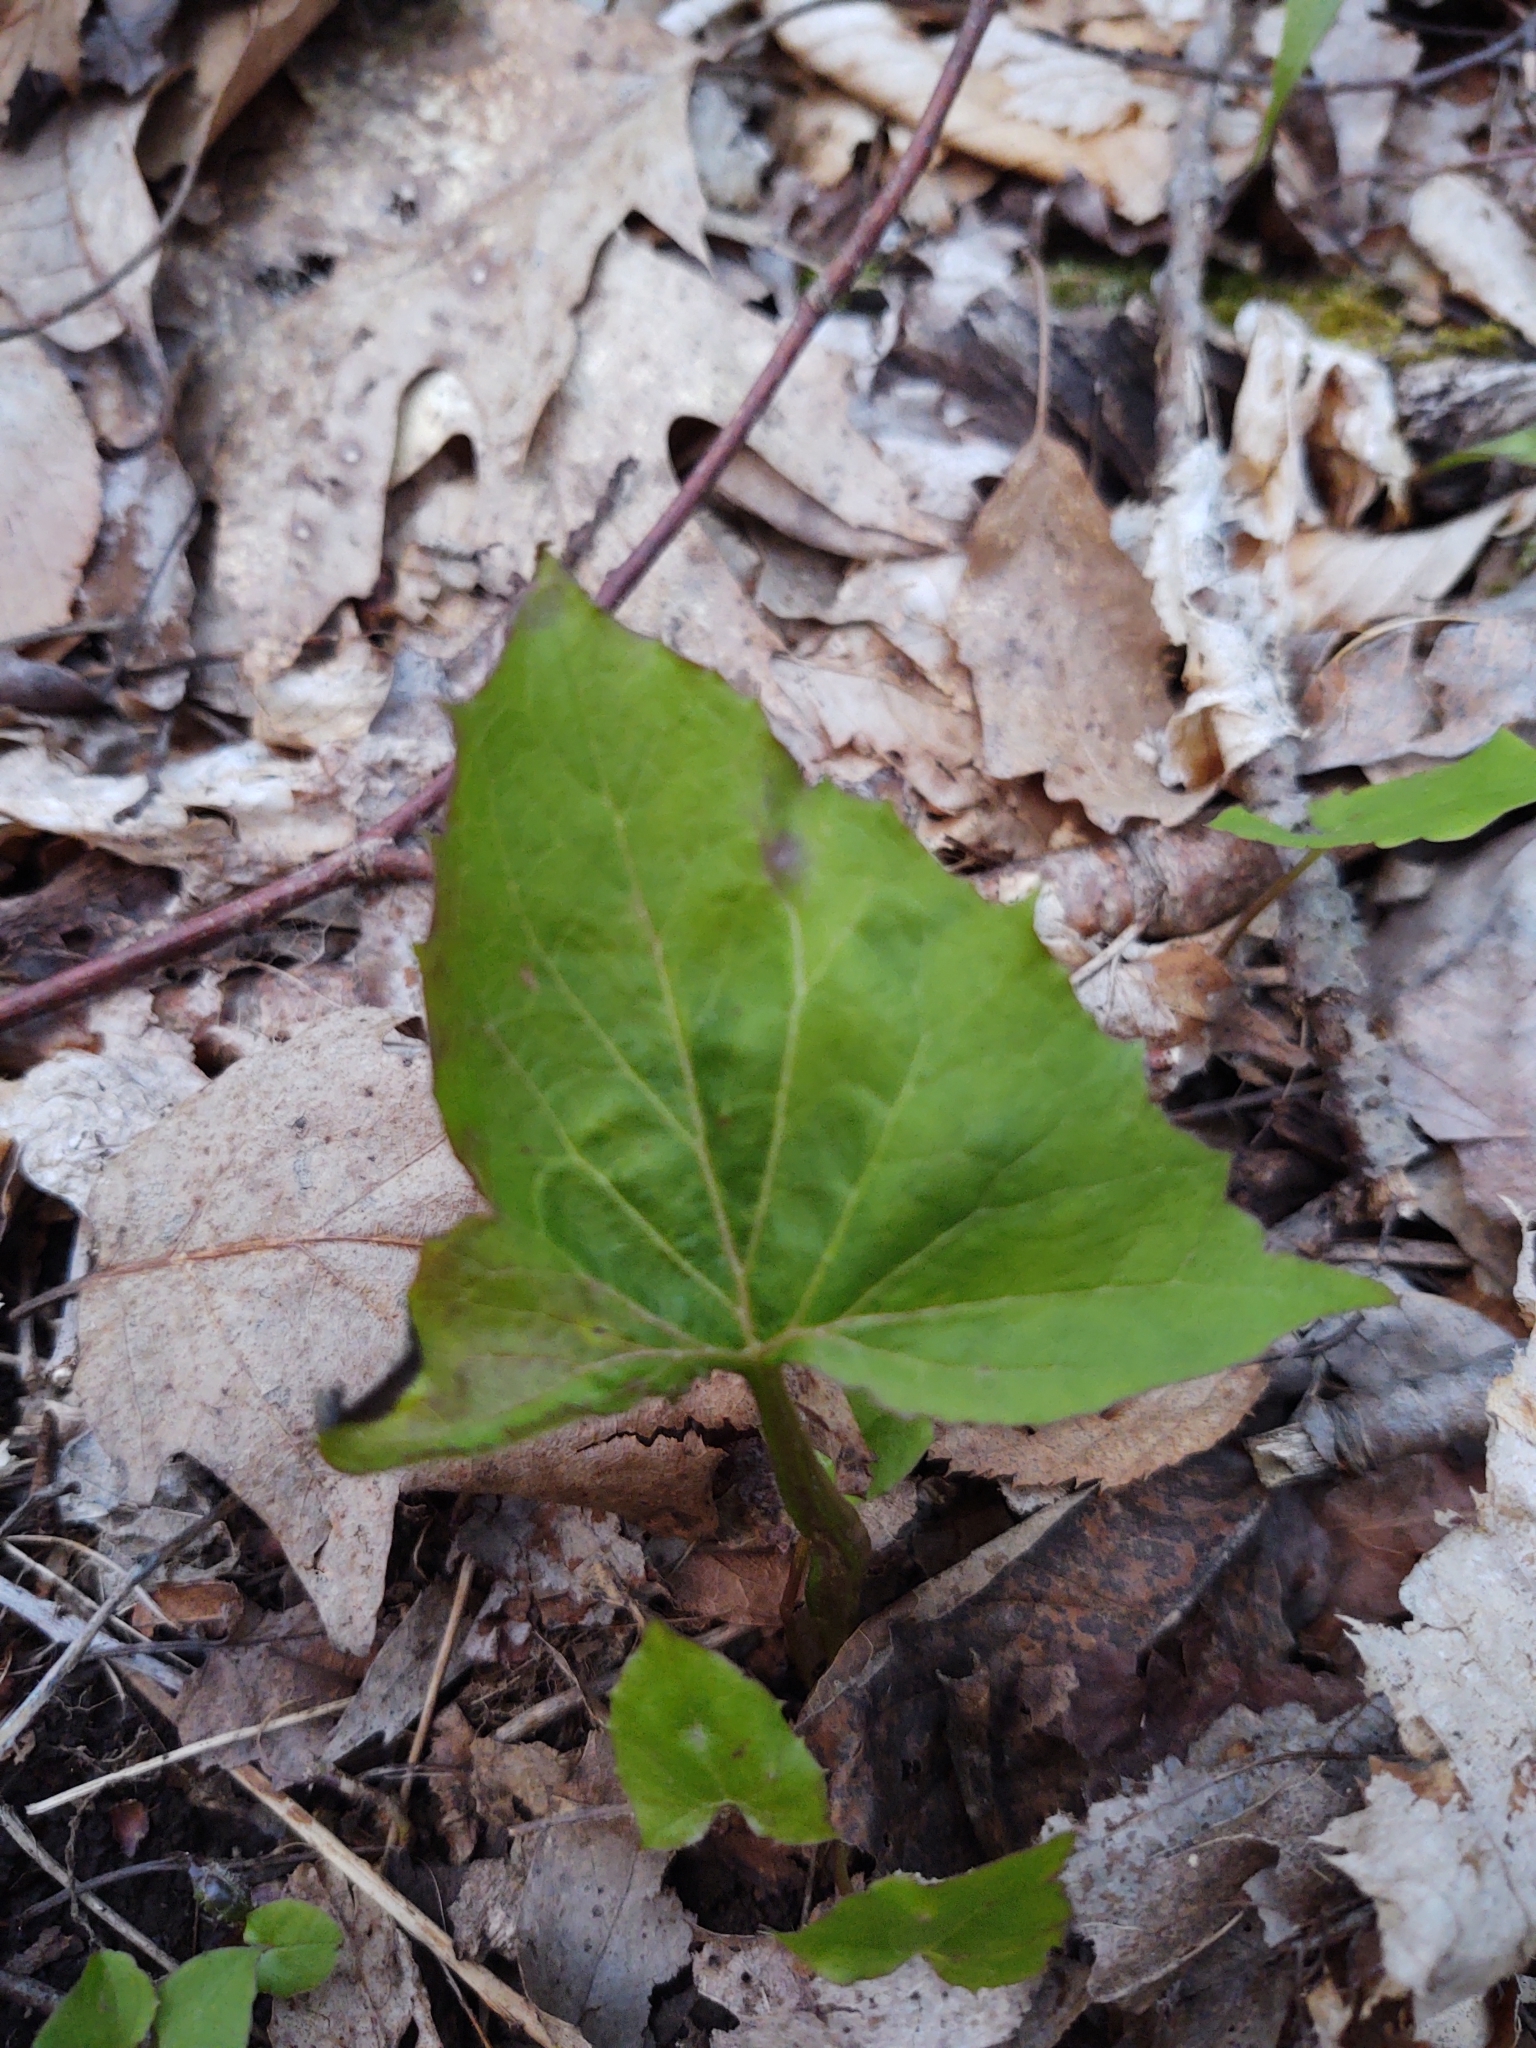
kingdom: Plantae
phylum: Tracheophyta
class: Magnoliopsida
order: Asterales
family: Asteraceae
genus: Nabalus
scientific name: Nabalus
